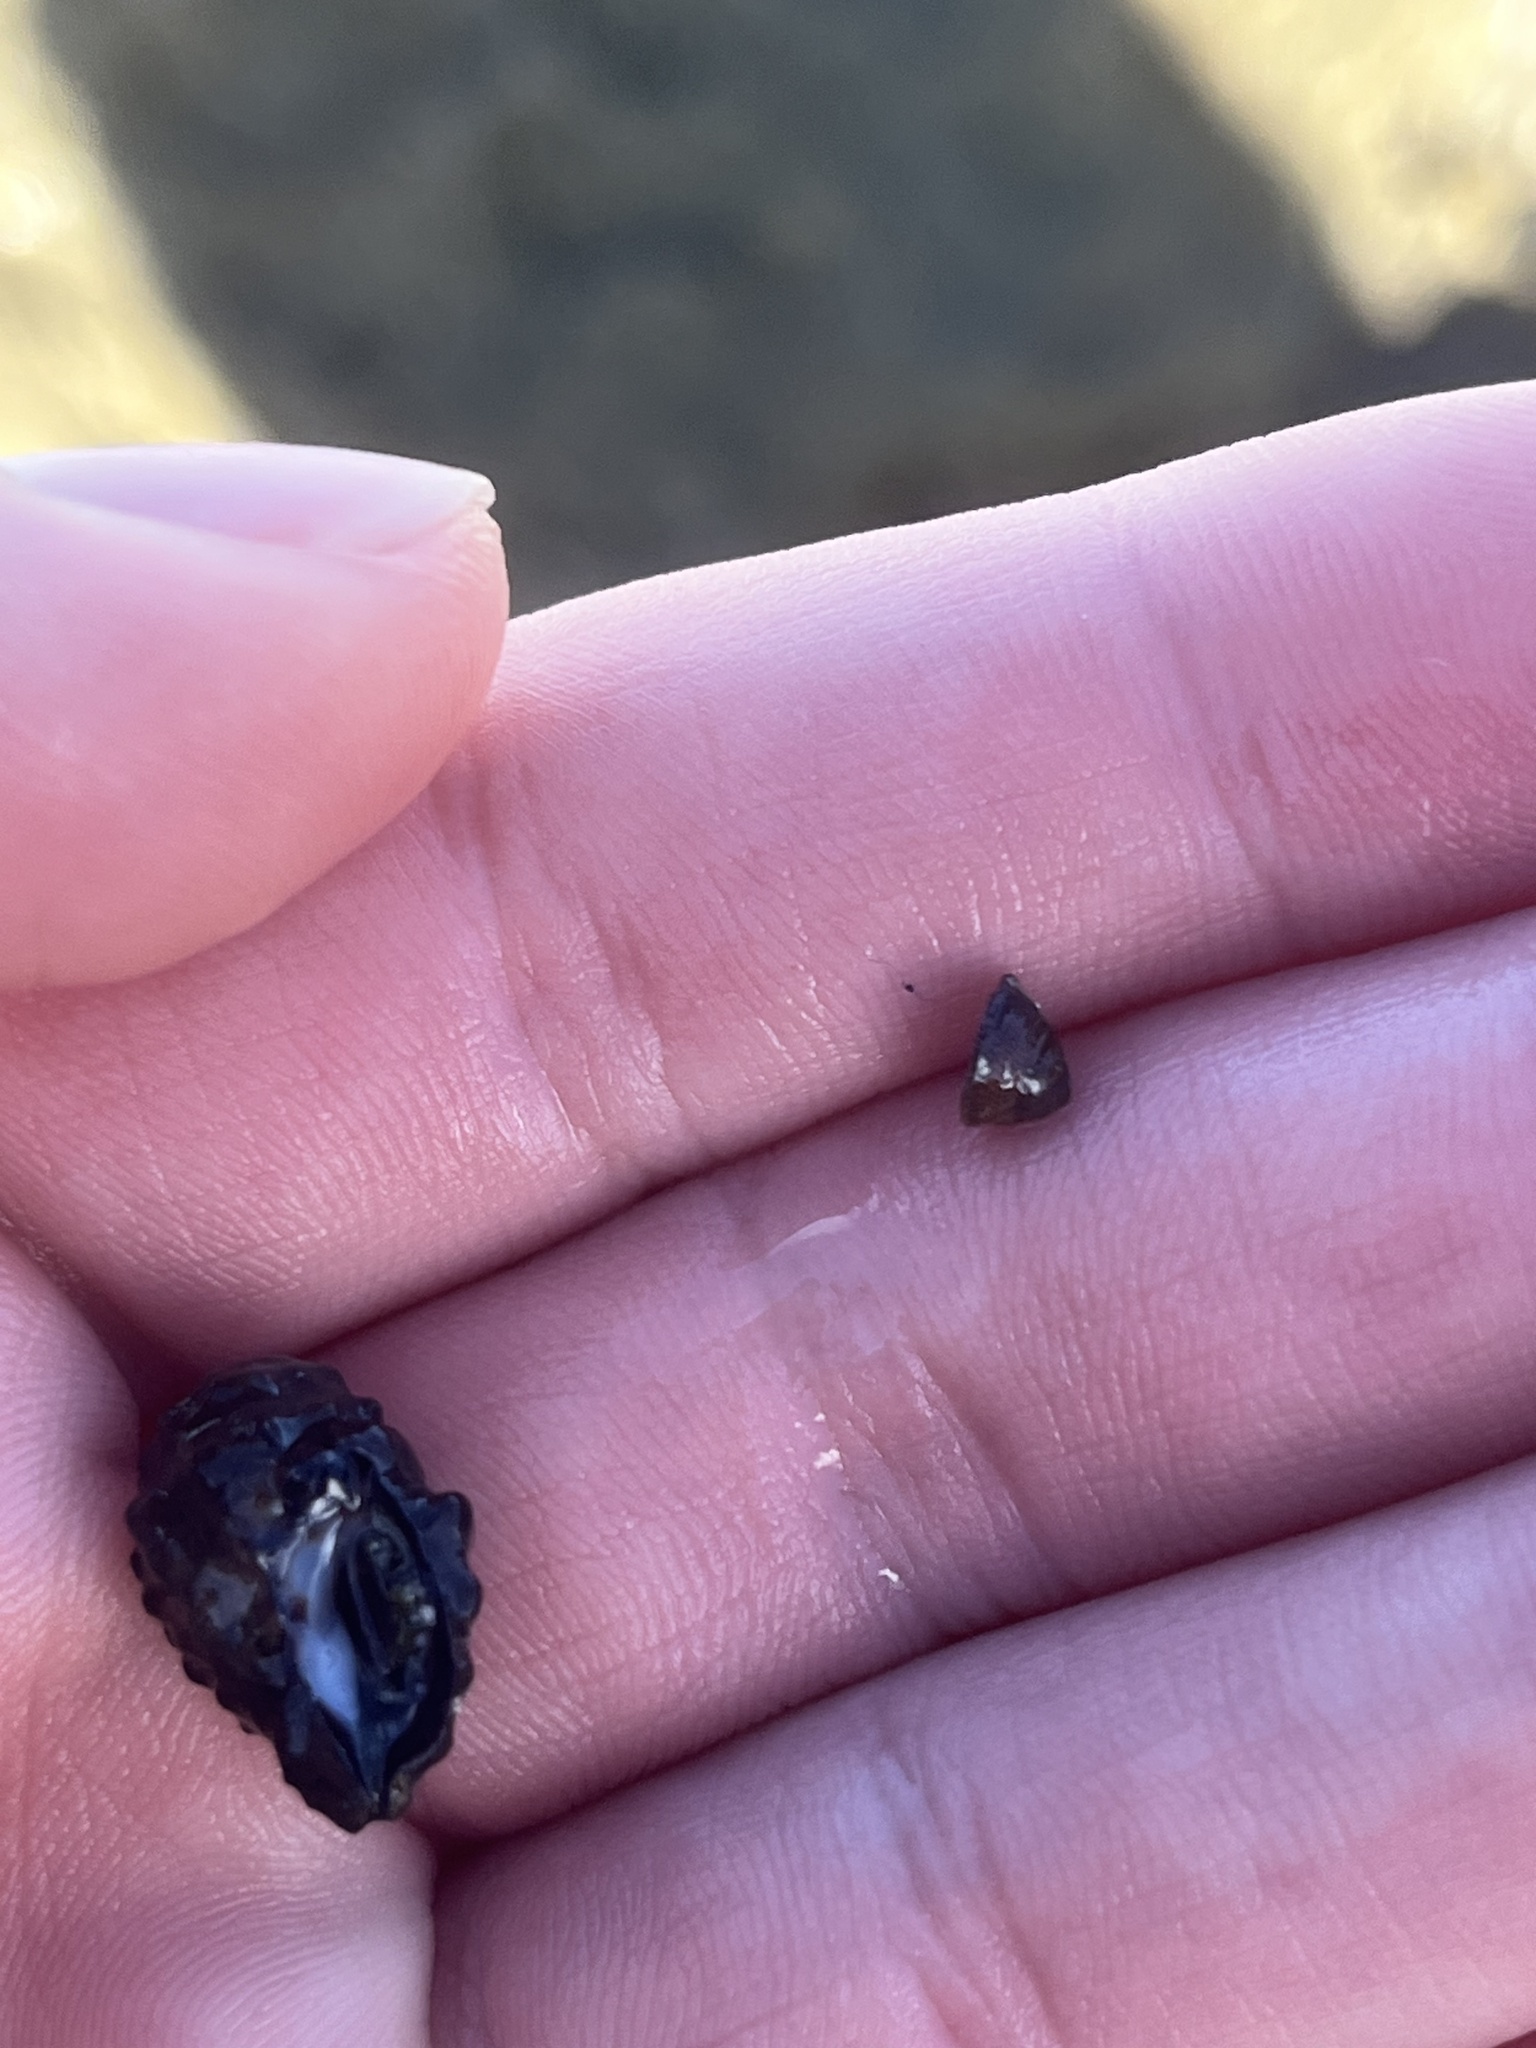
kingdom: Animalia
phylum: Mollusca
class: Gastropoda
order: Littorinimorpha
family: Littorinidae
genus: Peasiella
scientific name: Peasiella tantilla
